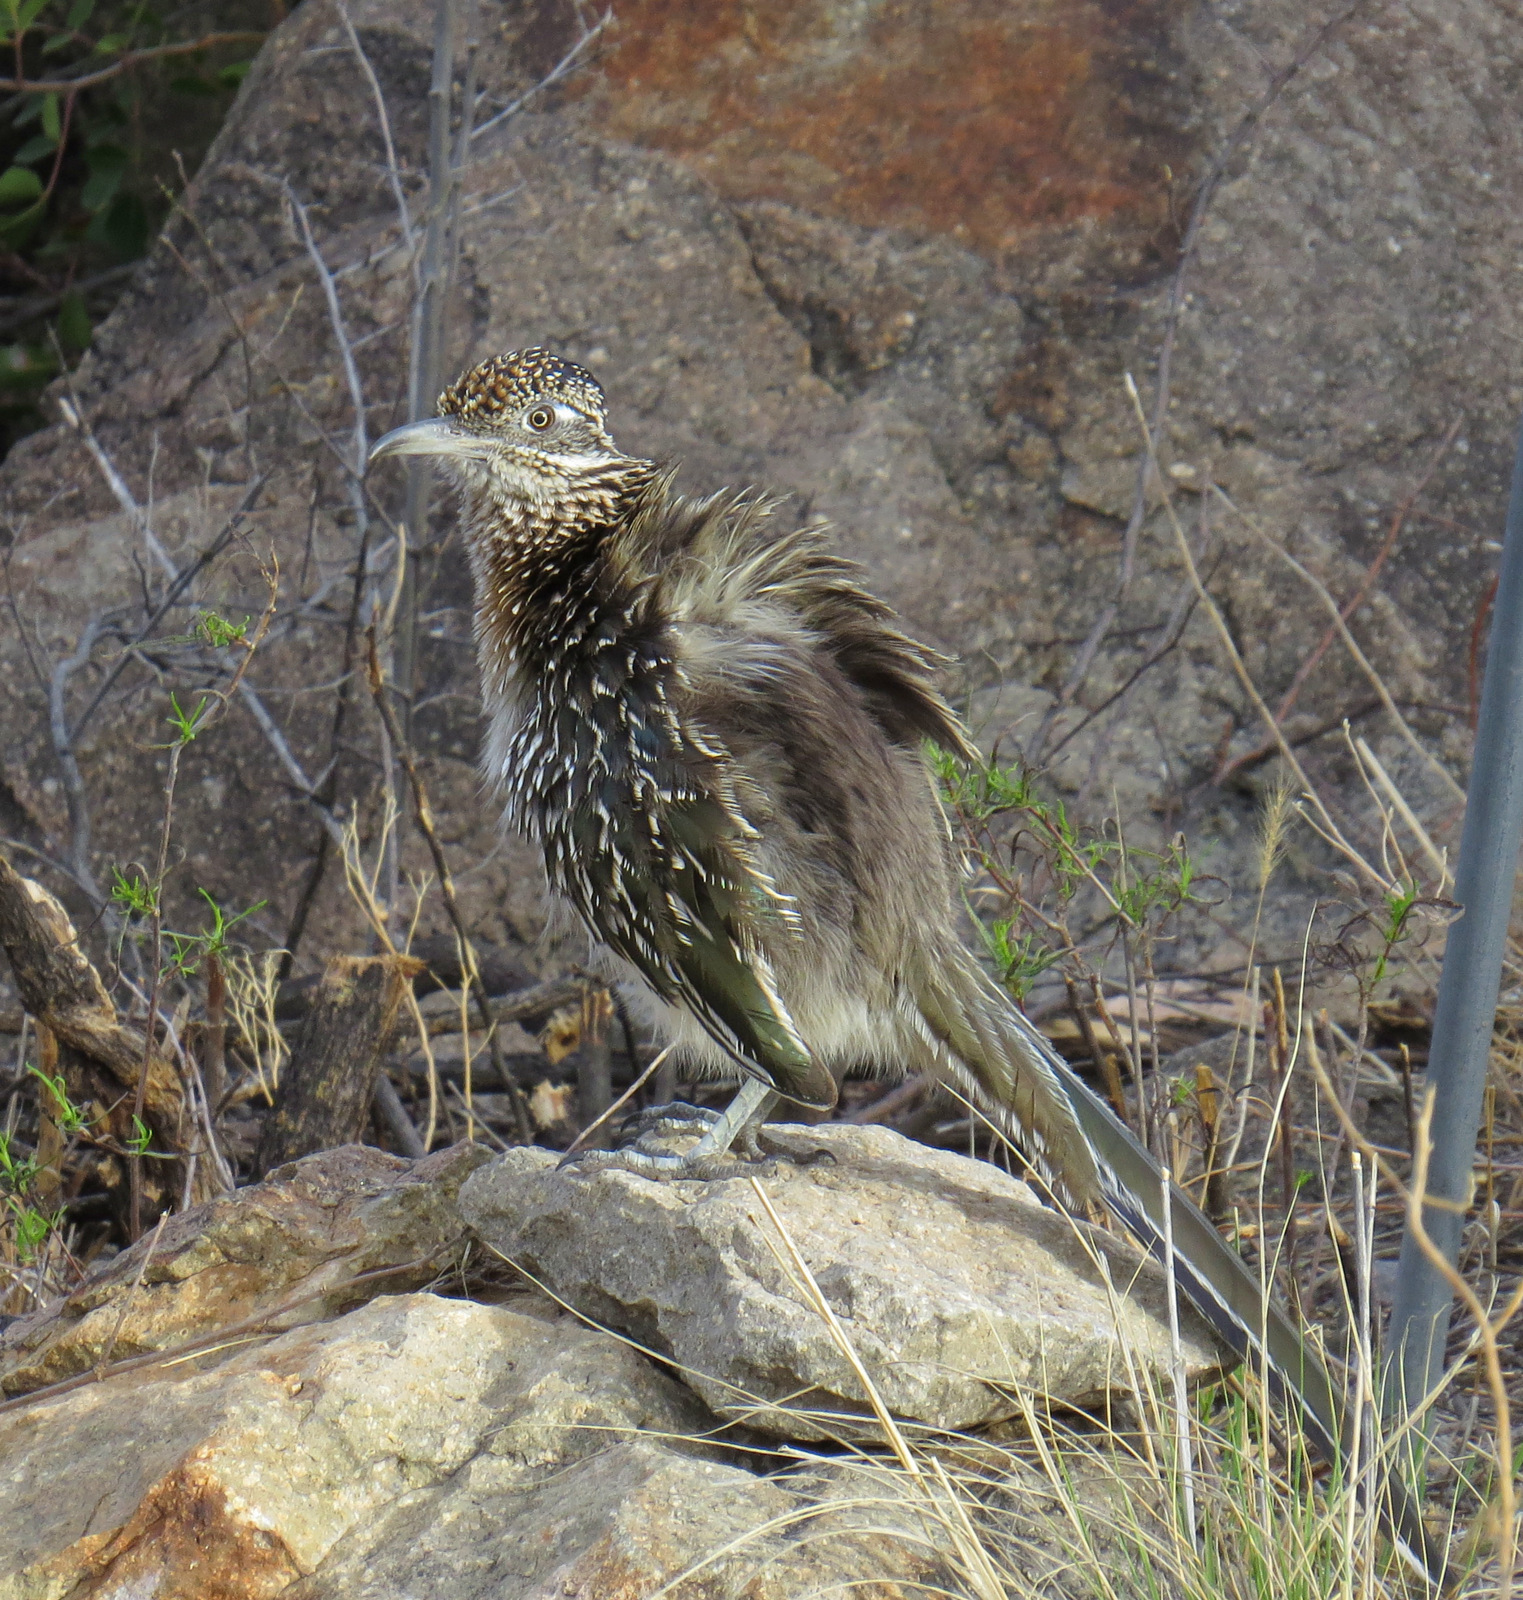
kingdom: Animalia
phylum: Chordata
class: Aves
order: Cuculiformes
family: Cuculidae
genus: Geococcyx
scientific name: Geococcyx californianus
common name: Greater roadrunner
